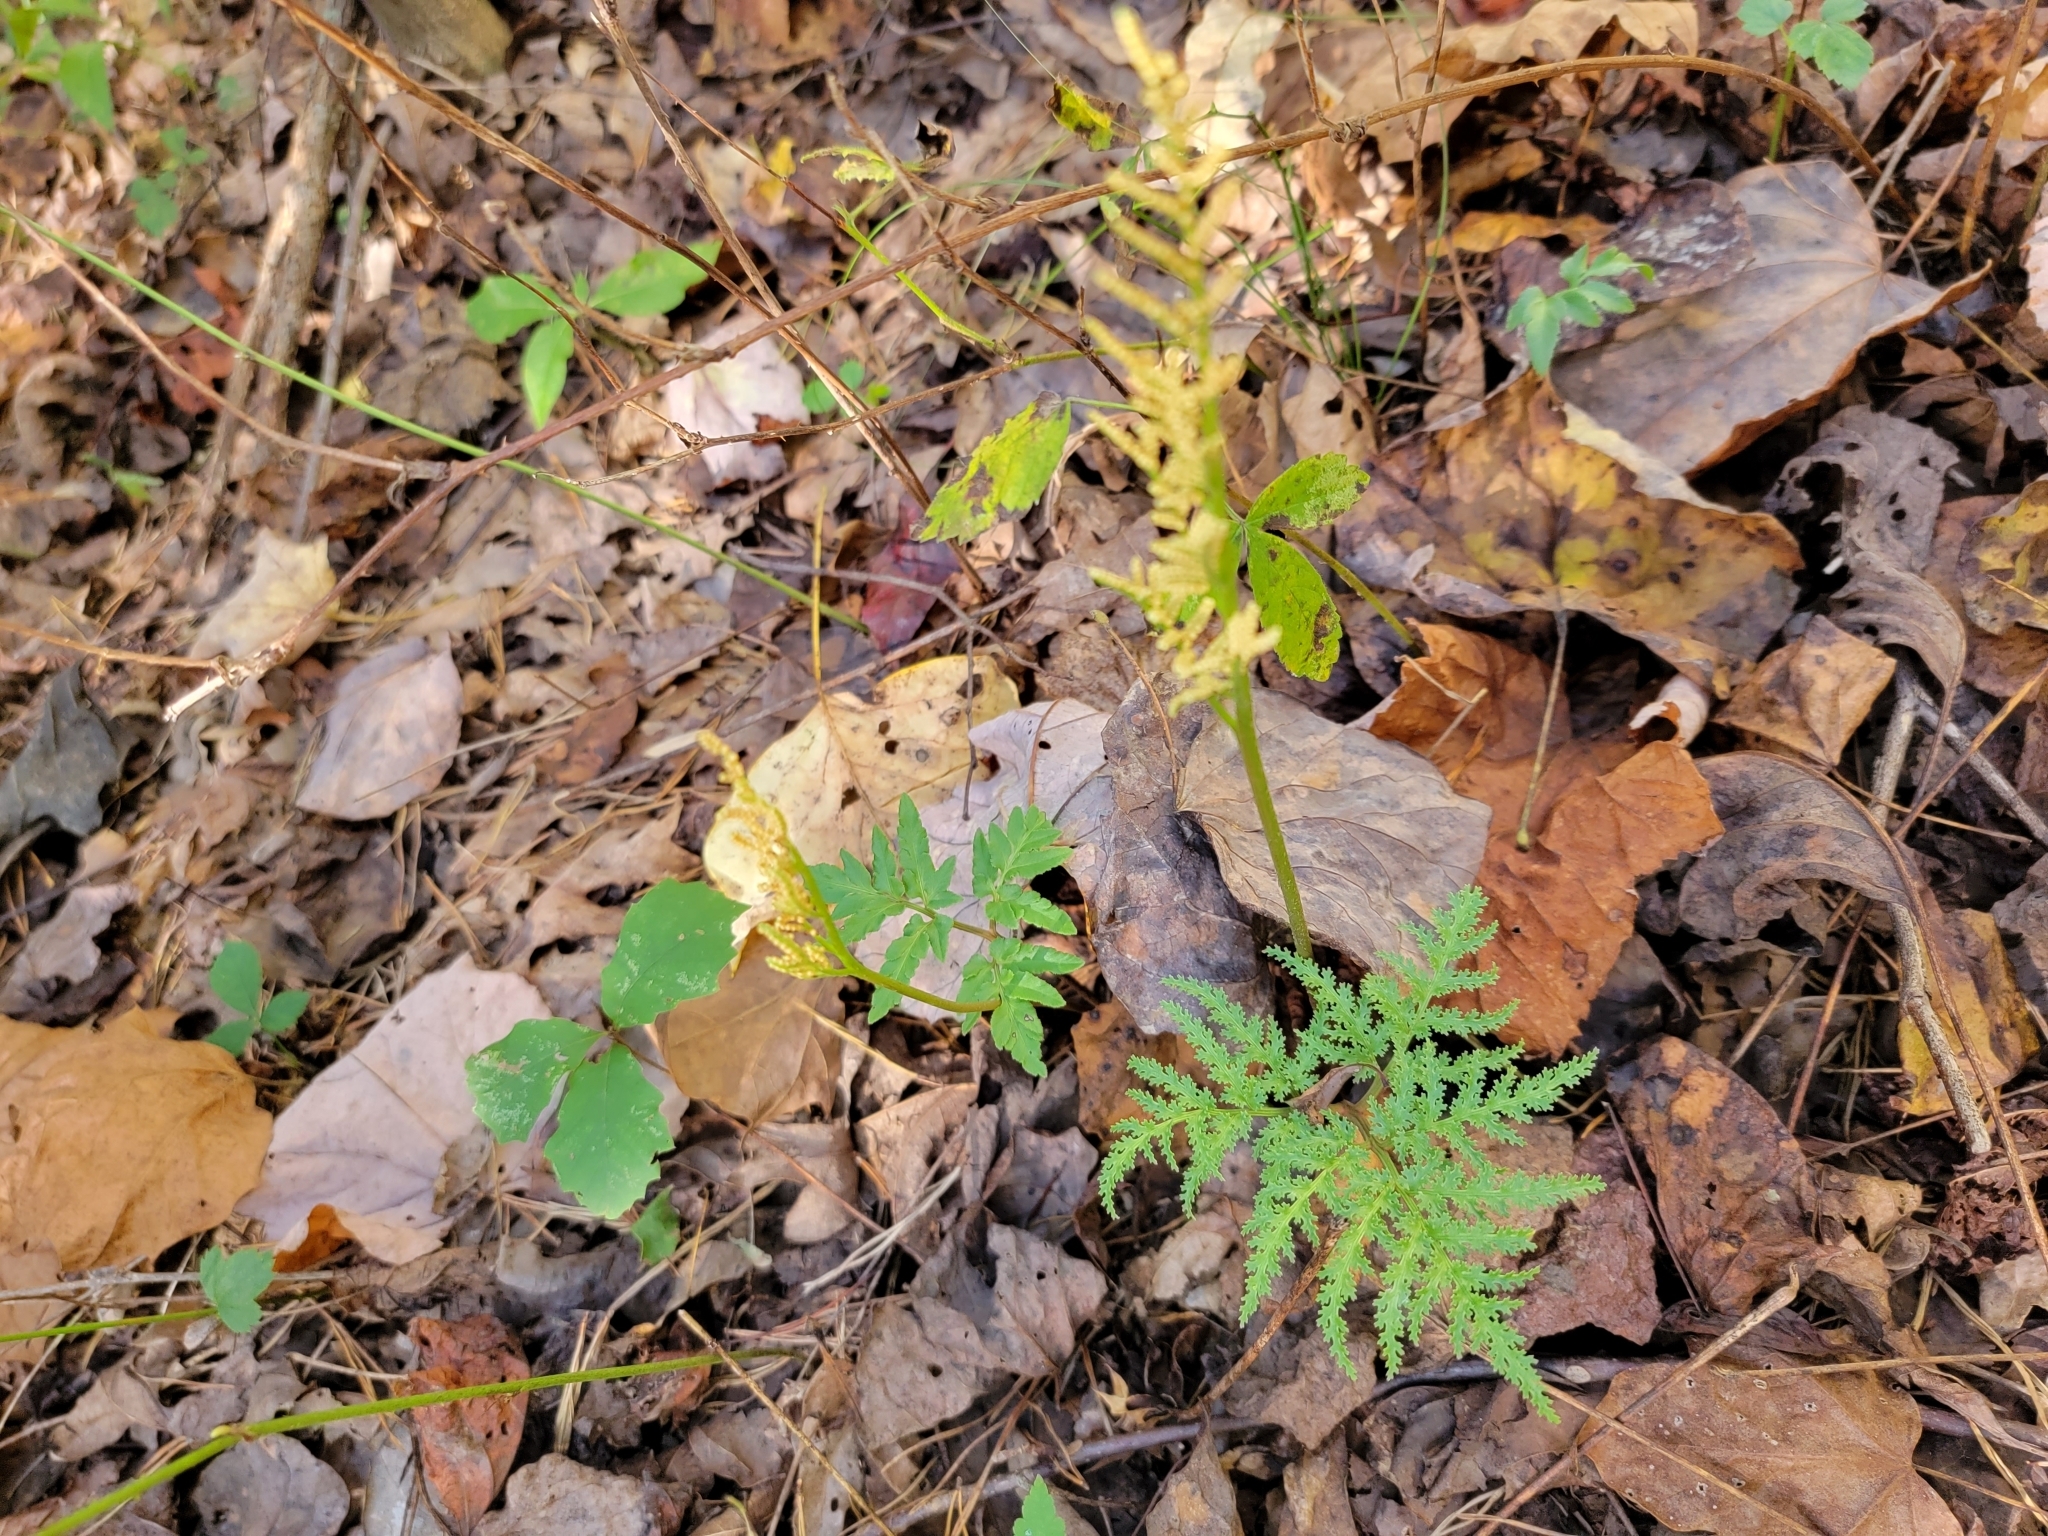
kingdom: Plantae
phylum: Tracheophyta
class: Polypodiopsida
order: Ophioglossales
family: Ophioglossaceae
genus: Sceptridium
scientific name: Sceptridium dissectum
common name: Cut-leaved grapefern
